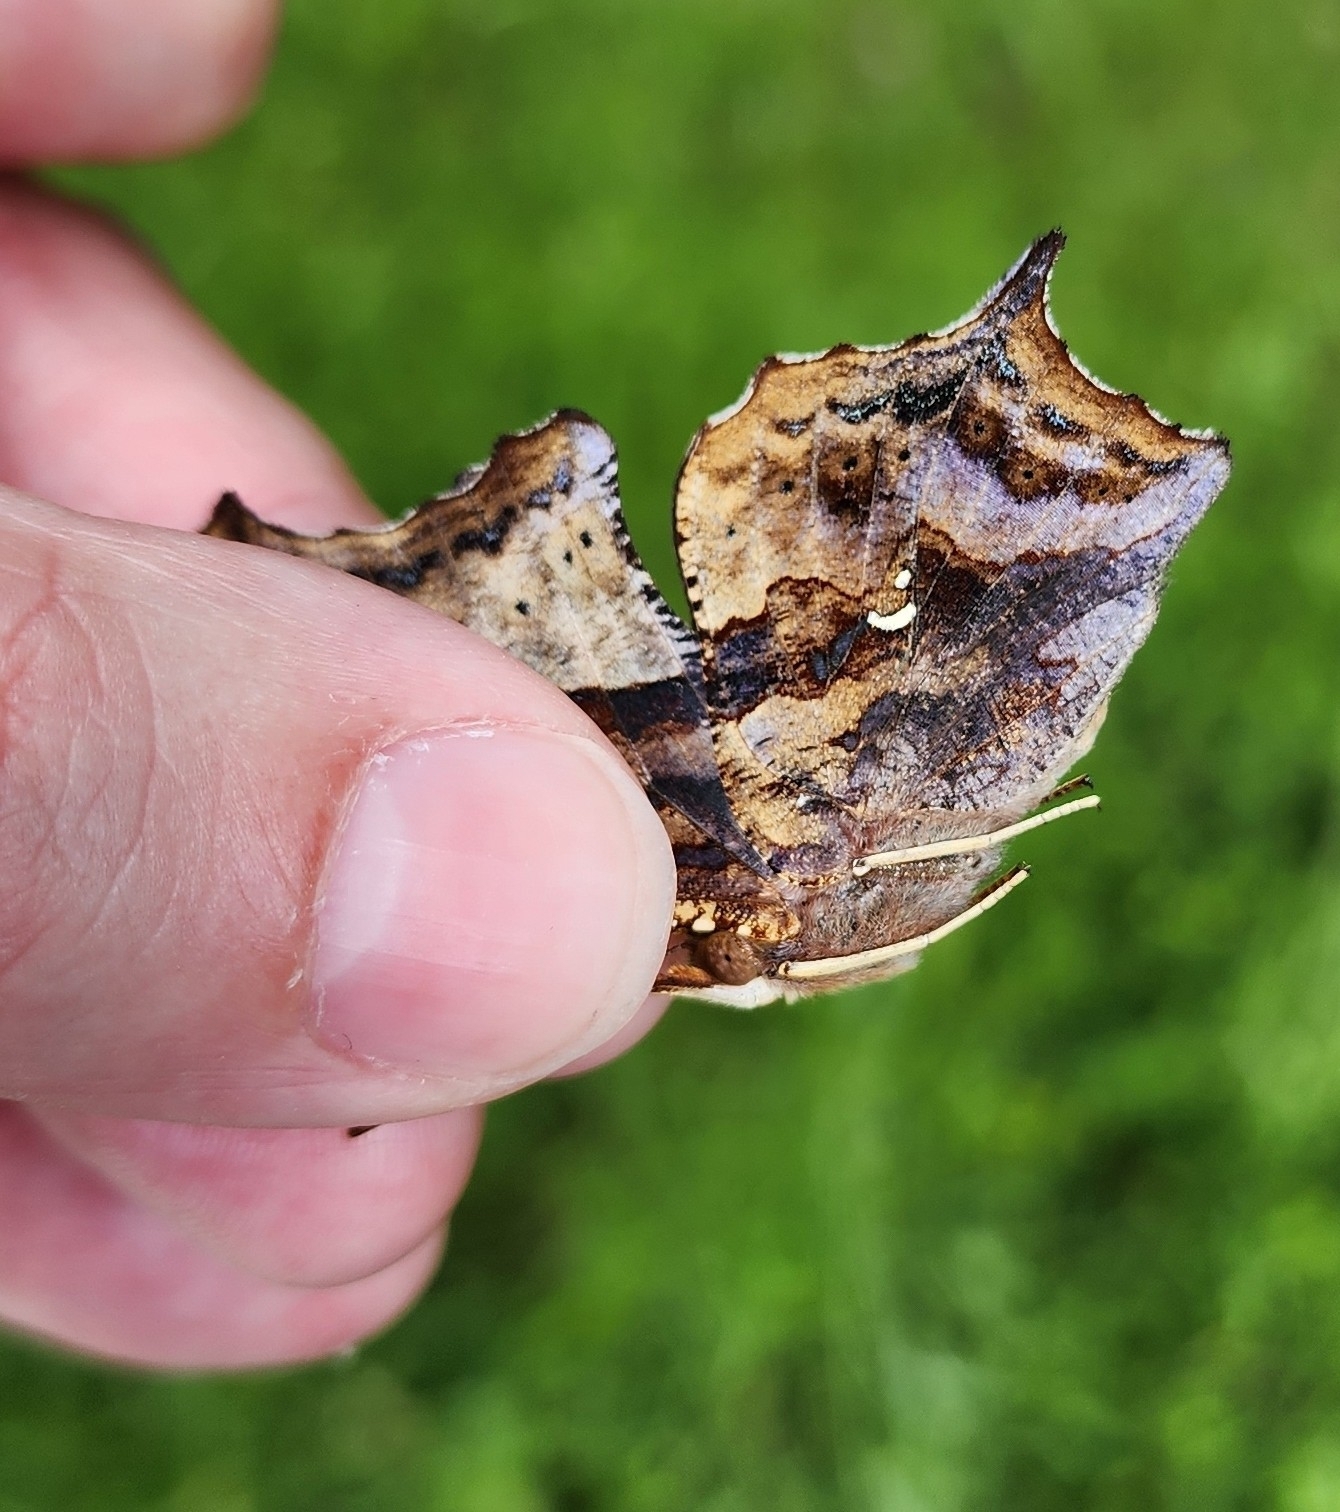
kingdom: Animalia
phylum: Arthropoda
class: Insecta
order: Lepidoptera
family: Nymphalidae
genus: Polygonia
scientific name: Polygonia interrogationis
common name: Question mark
